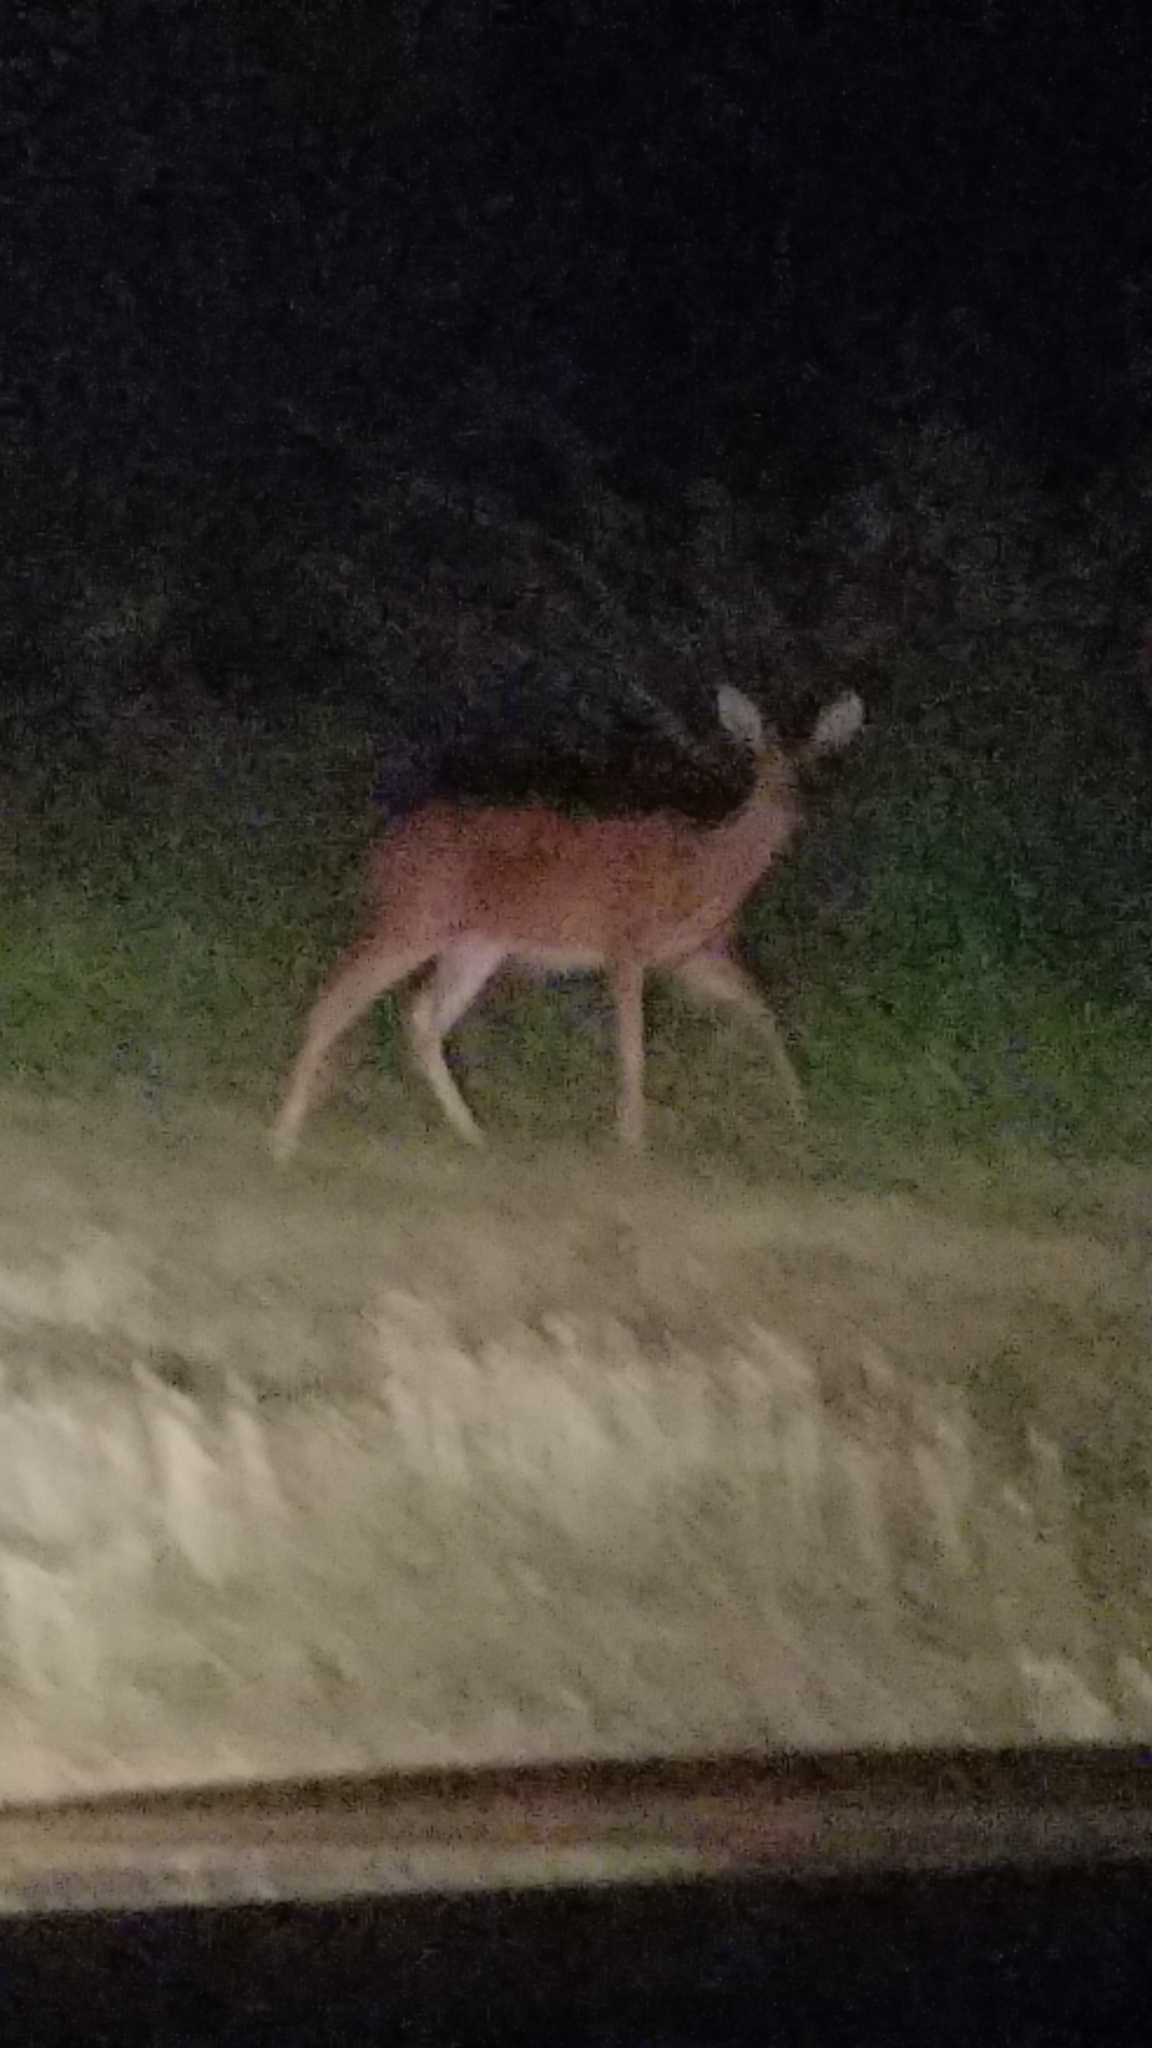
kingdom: Animalia
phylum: Chordata
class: Mammalia
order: Artiodactyla
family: Cervidae
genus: Odocoileus
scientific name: Odocoileus virginianus
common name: White-tailed deer
